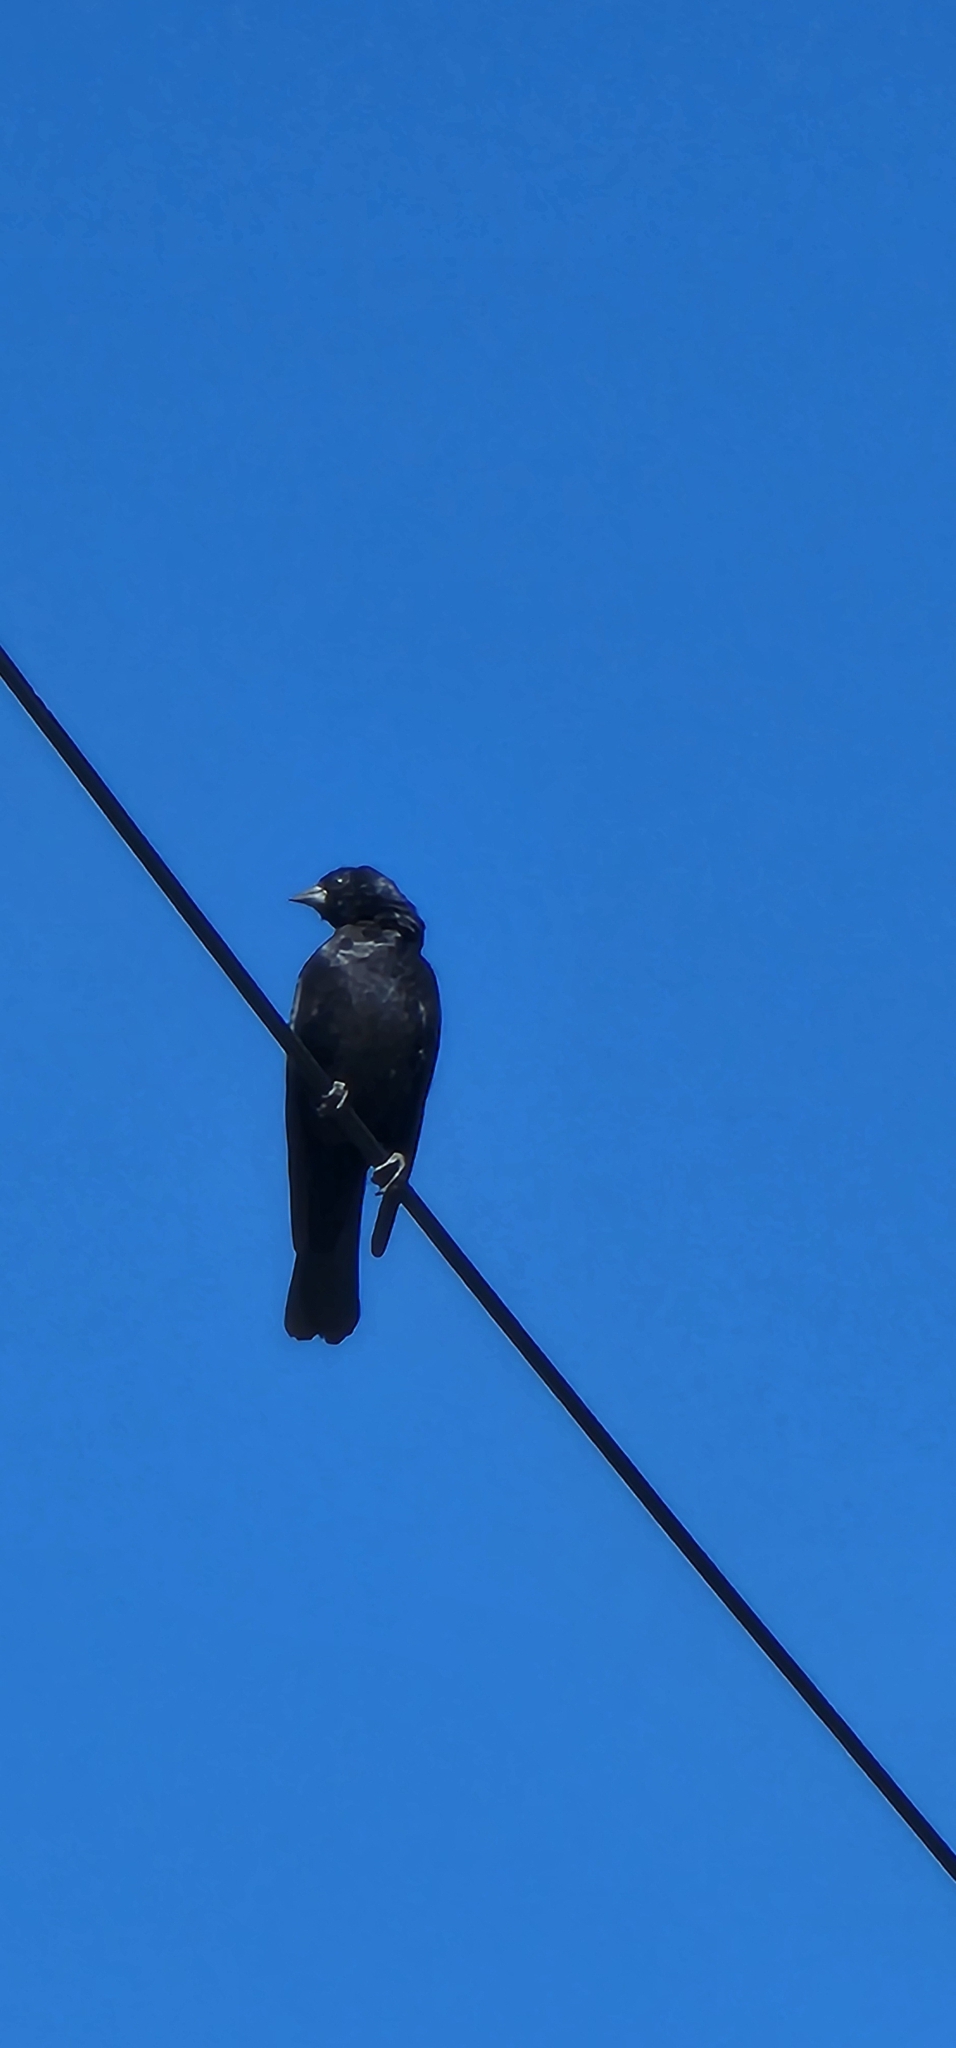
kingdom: Animalia
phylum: Chordata
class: Aves
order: Passeriformes
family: Icteridae
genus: Molothrus
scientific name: Molothrus bonariensis
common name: Shiny cowbird
